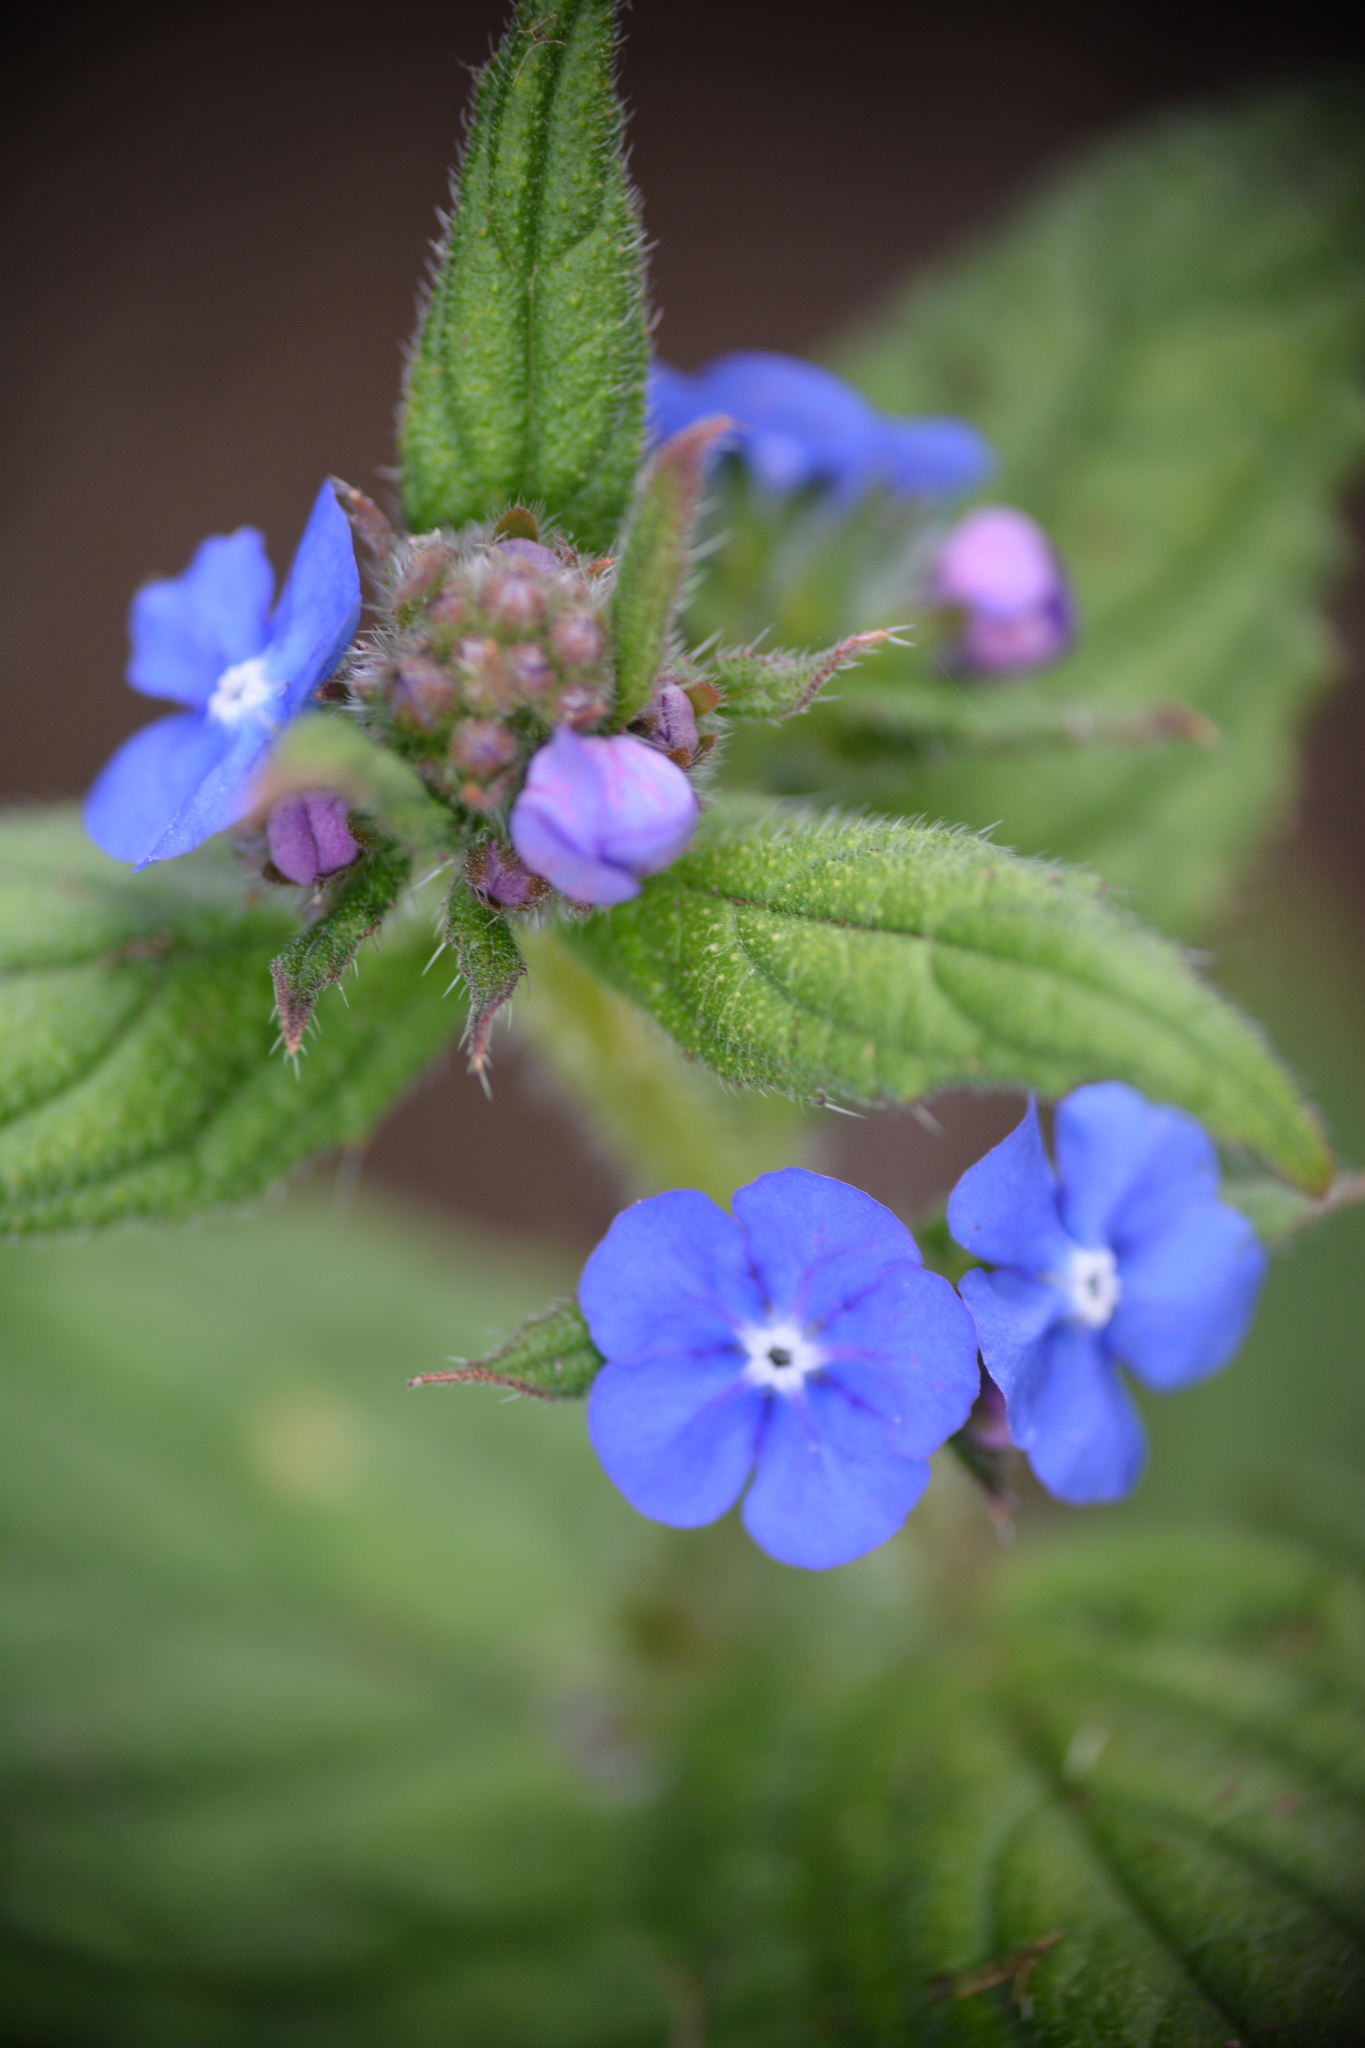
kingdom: Plantae
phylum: Tracheophyta
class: Magnoliopsida
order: Boraginales
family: Boraginaceae
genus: Pentaglottis
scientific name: Pentaglottis sempervirens
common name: Green alkanet
